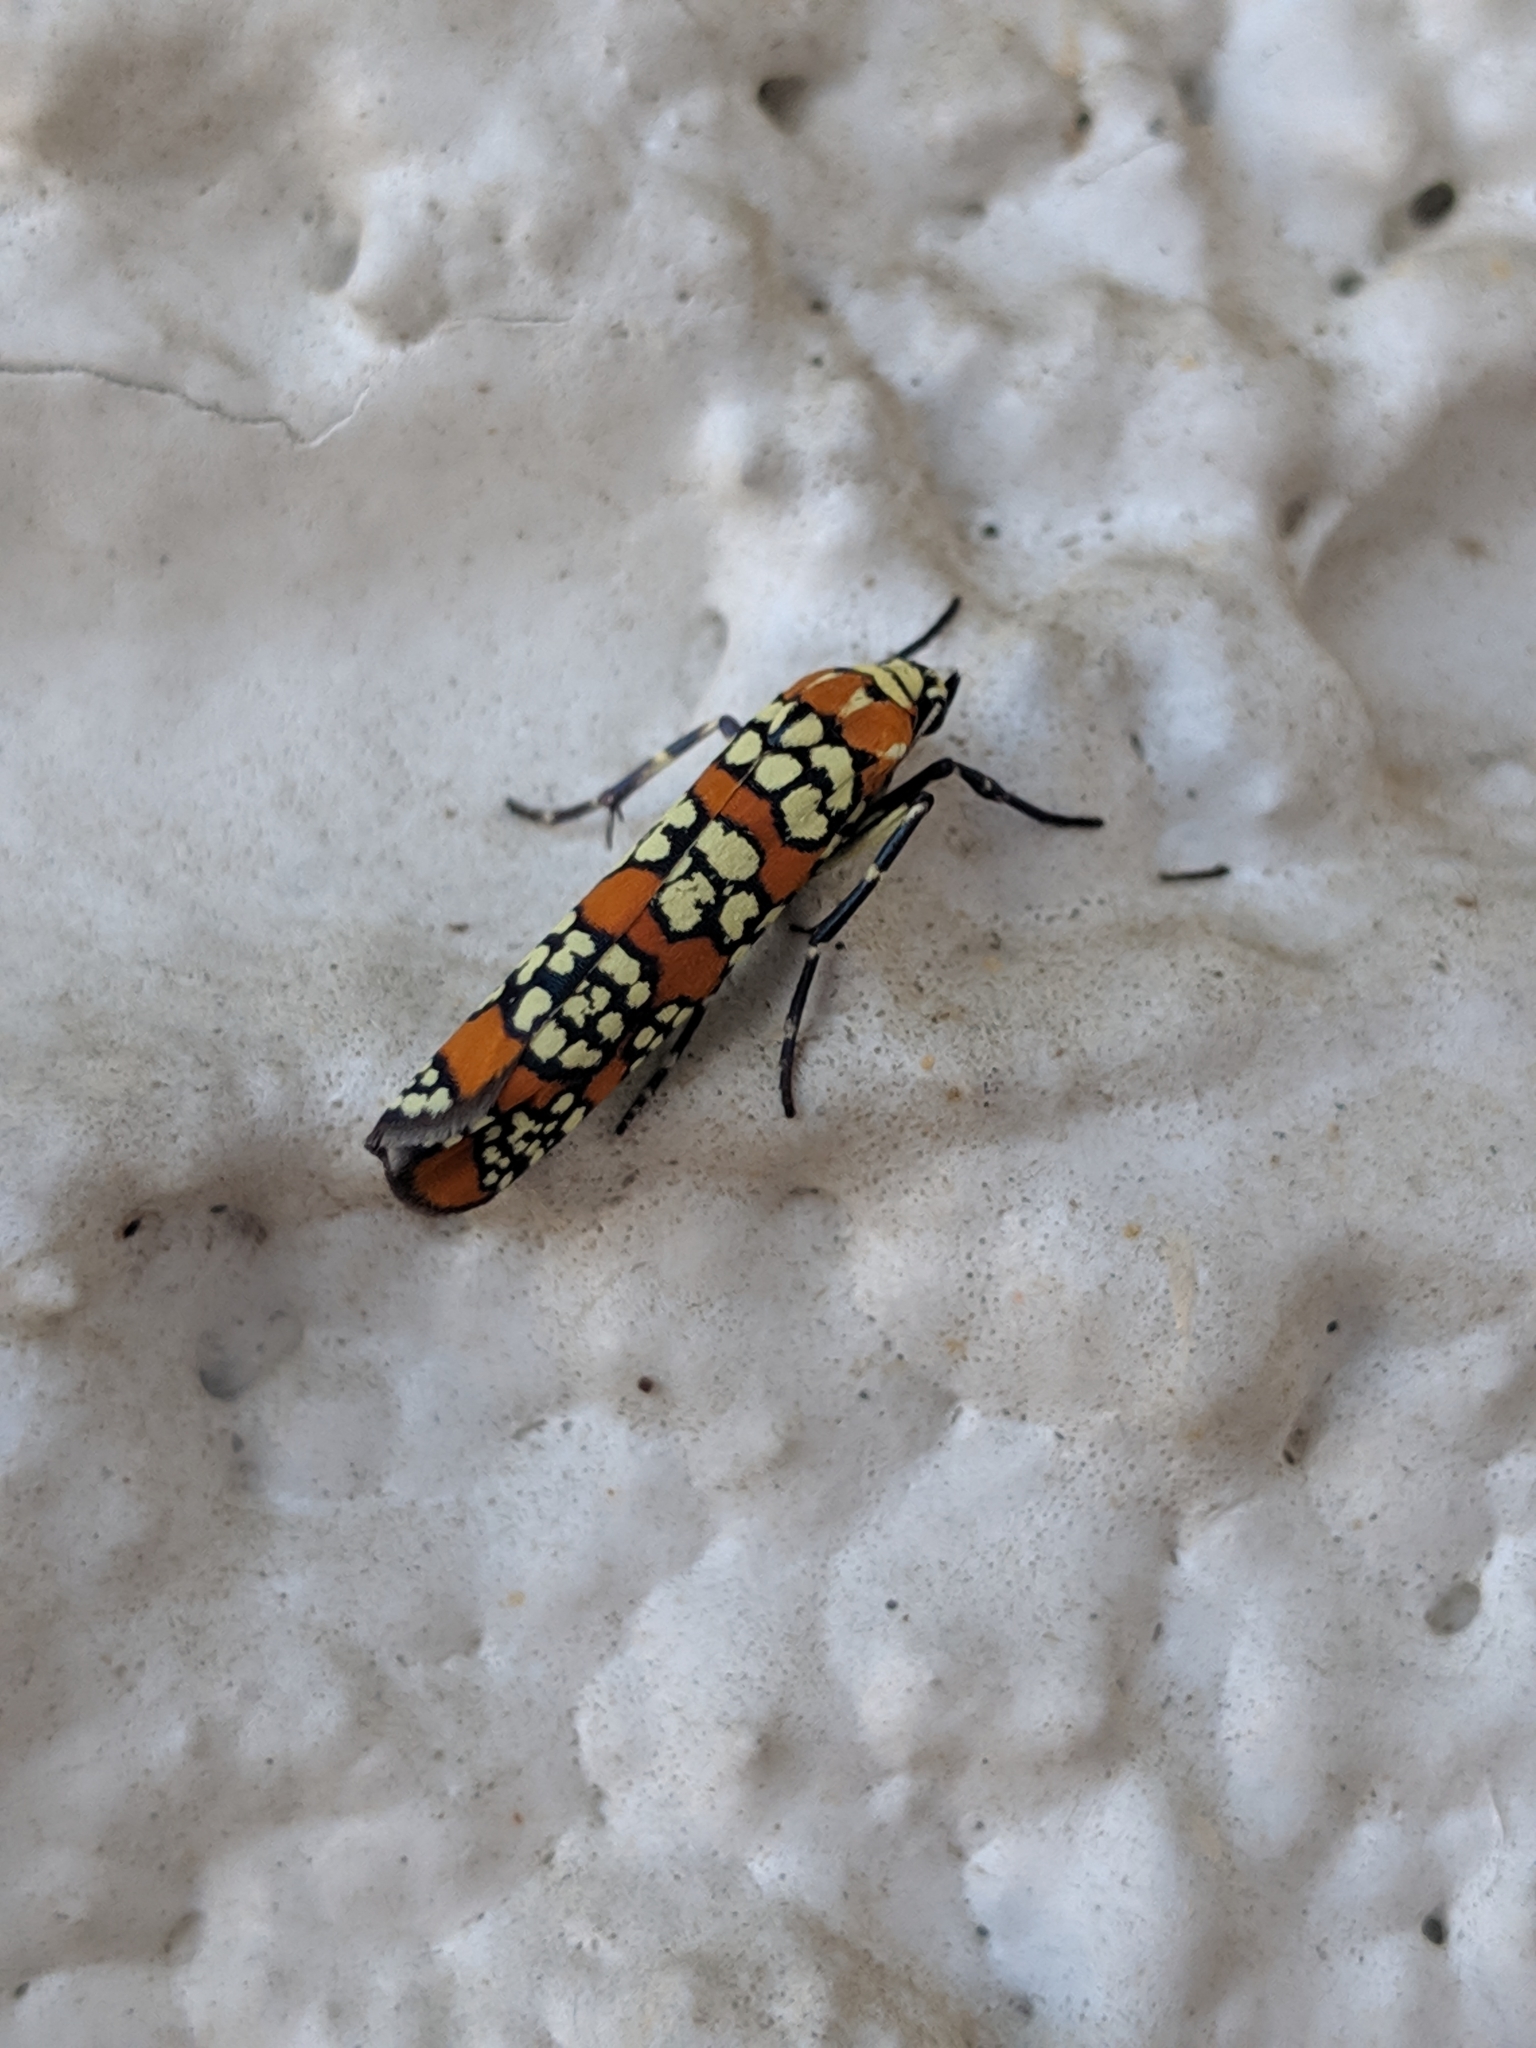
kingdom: Animalia
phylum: Arthropoda
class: Insecta
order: Lepidoptera
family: Attevidae
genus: Atteva
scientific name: Atteva punctella
